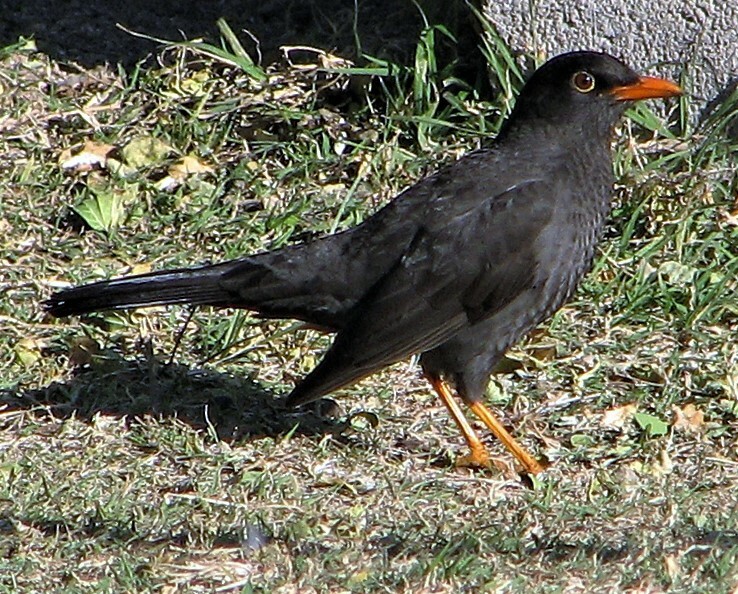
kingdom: Animalia
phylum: Chordata
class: Aves
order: Passeriformes
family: Turdidae
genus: Turdus
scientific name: Turdus chiguanco
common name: Chiguanco thrush
